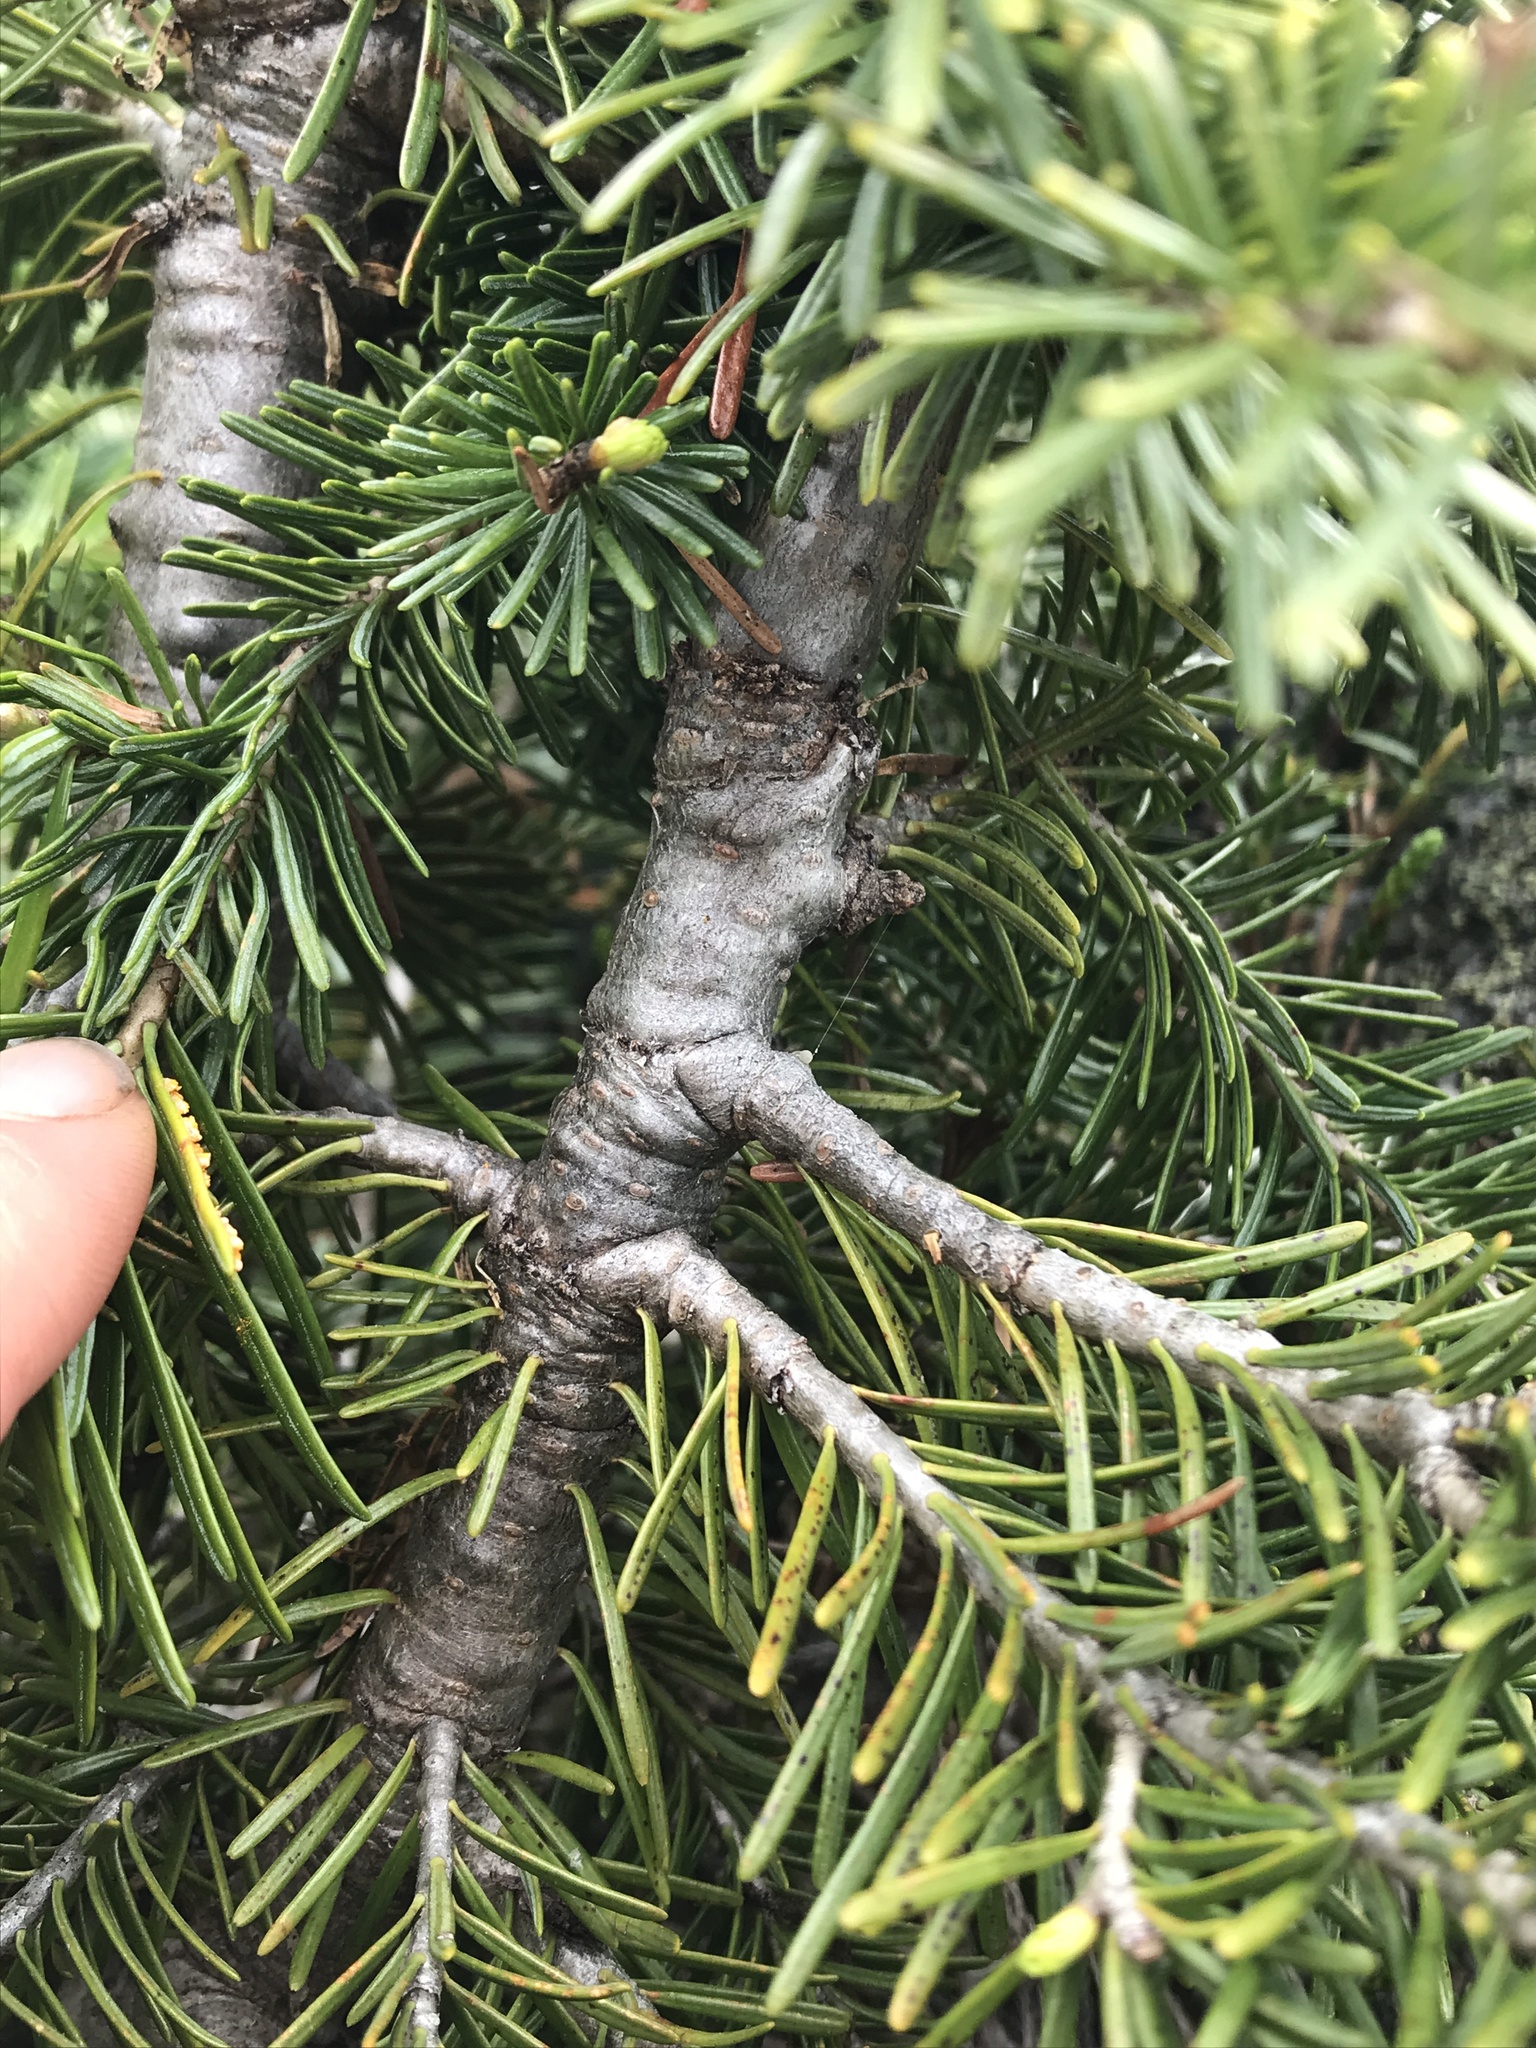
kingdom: Plantae
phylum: Tracheophyta
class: Pinopsida
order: Pinales
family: Pinaceae
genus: Abies
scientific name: Abies lasiocarpa
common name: Subalpine fir
